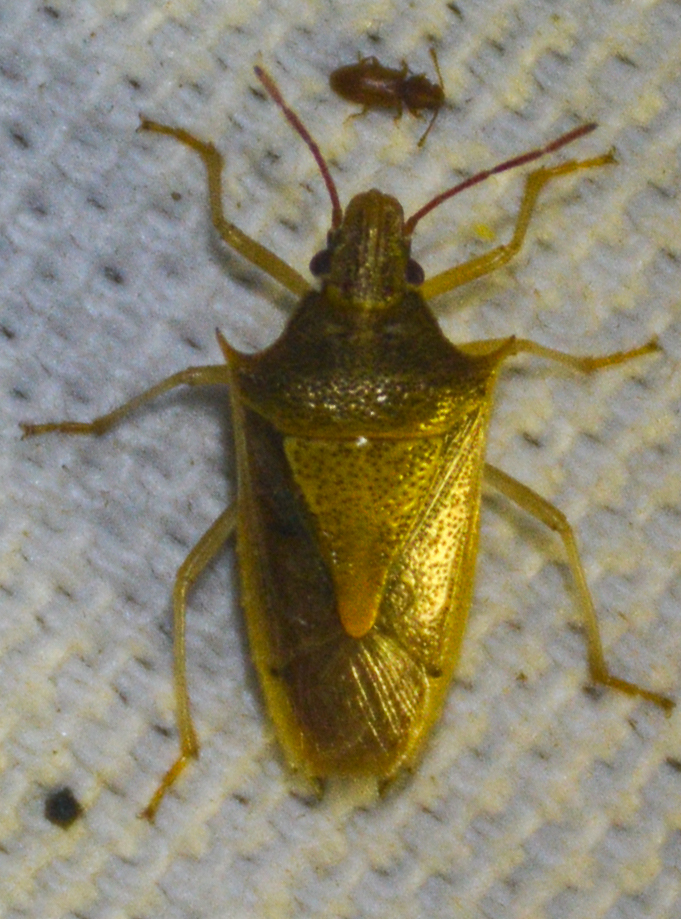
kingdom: Animalia
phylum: Arthropoda
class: Insecta
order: Hemiptera
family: Pentatomidae
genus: Oebalus
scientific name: Oebalus pugnax
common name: Rice stink bug
